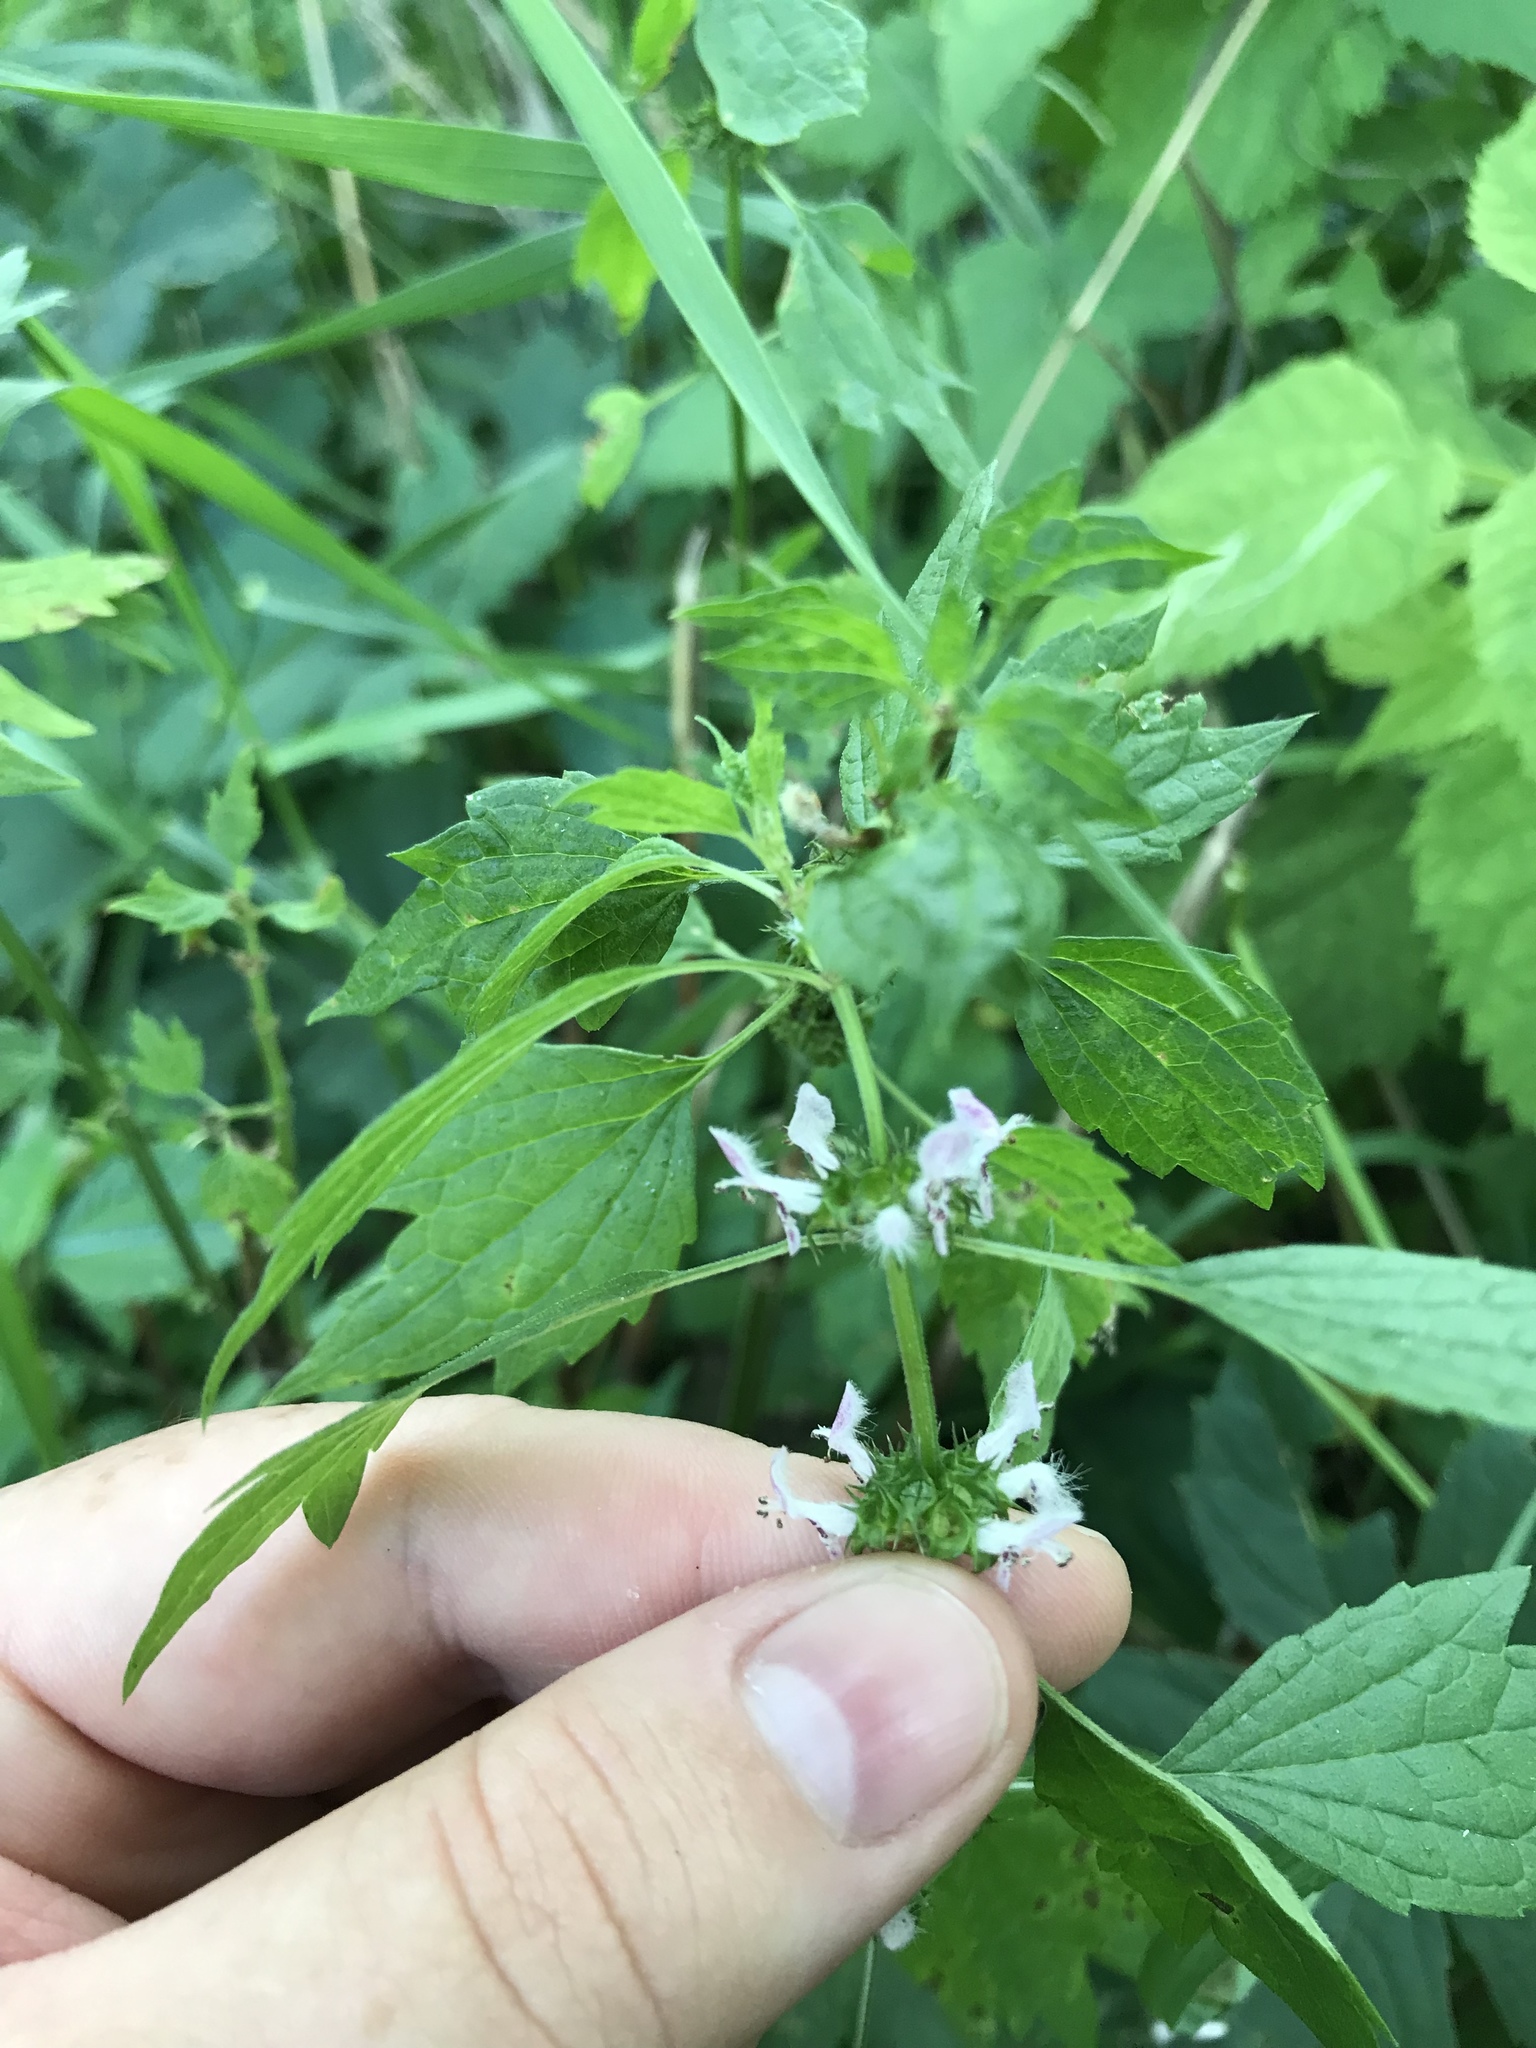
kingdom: Plantae
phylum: Tracheophyta
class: Magnoliopsida
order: Lamiales
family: Lamiaceae
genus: Leonurus
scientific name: Leonurus cardiaca
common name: Motherwort
